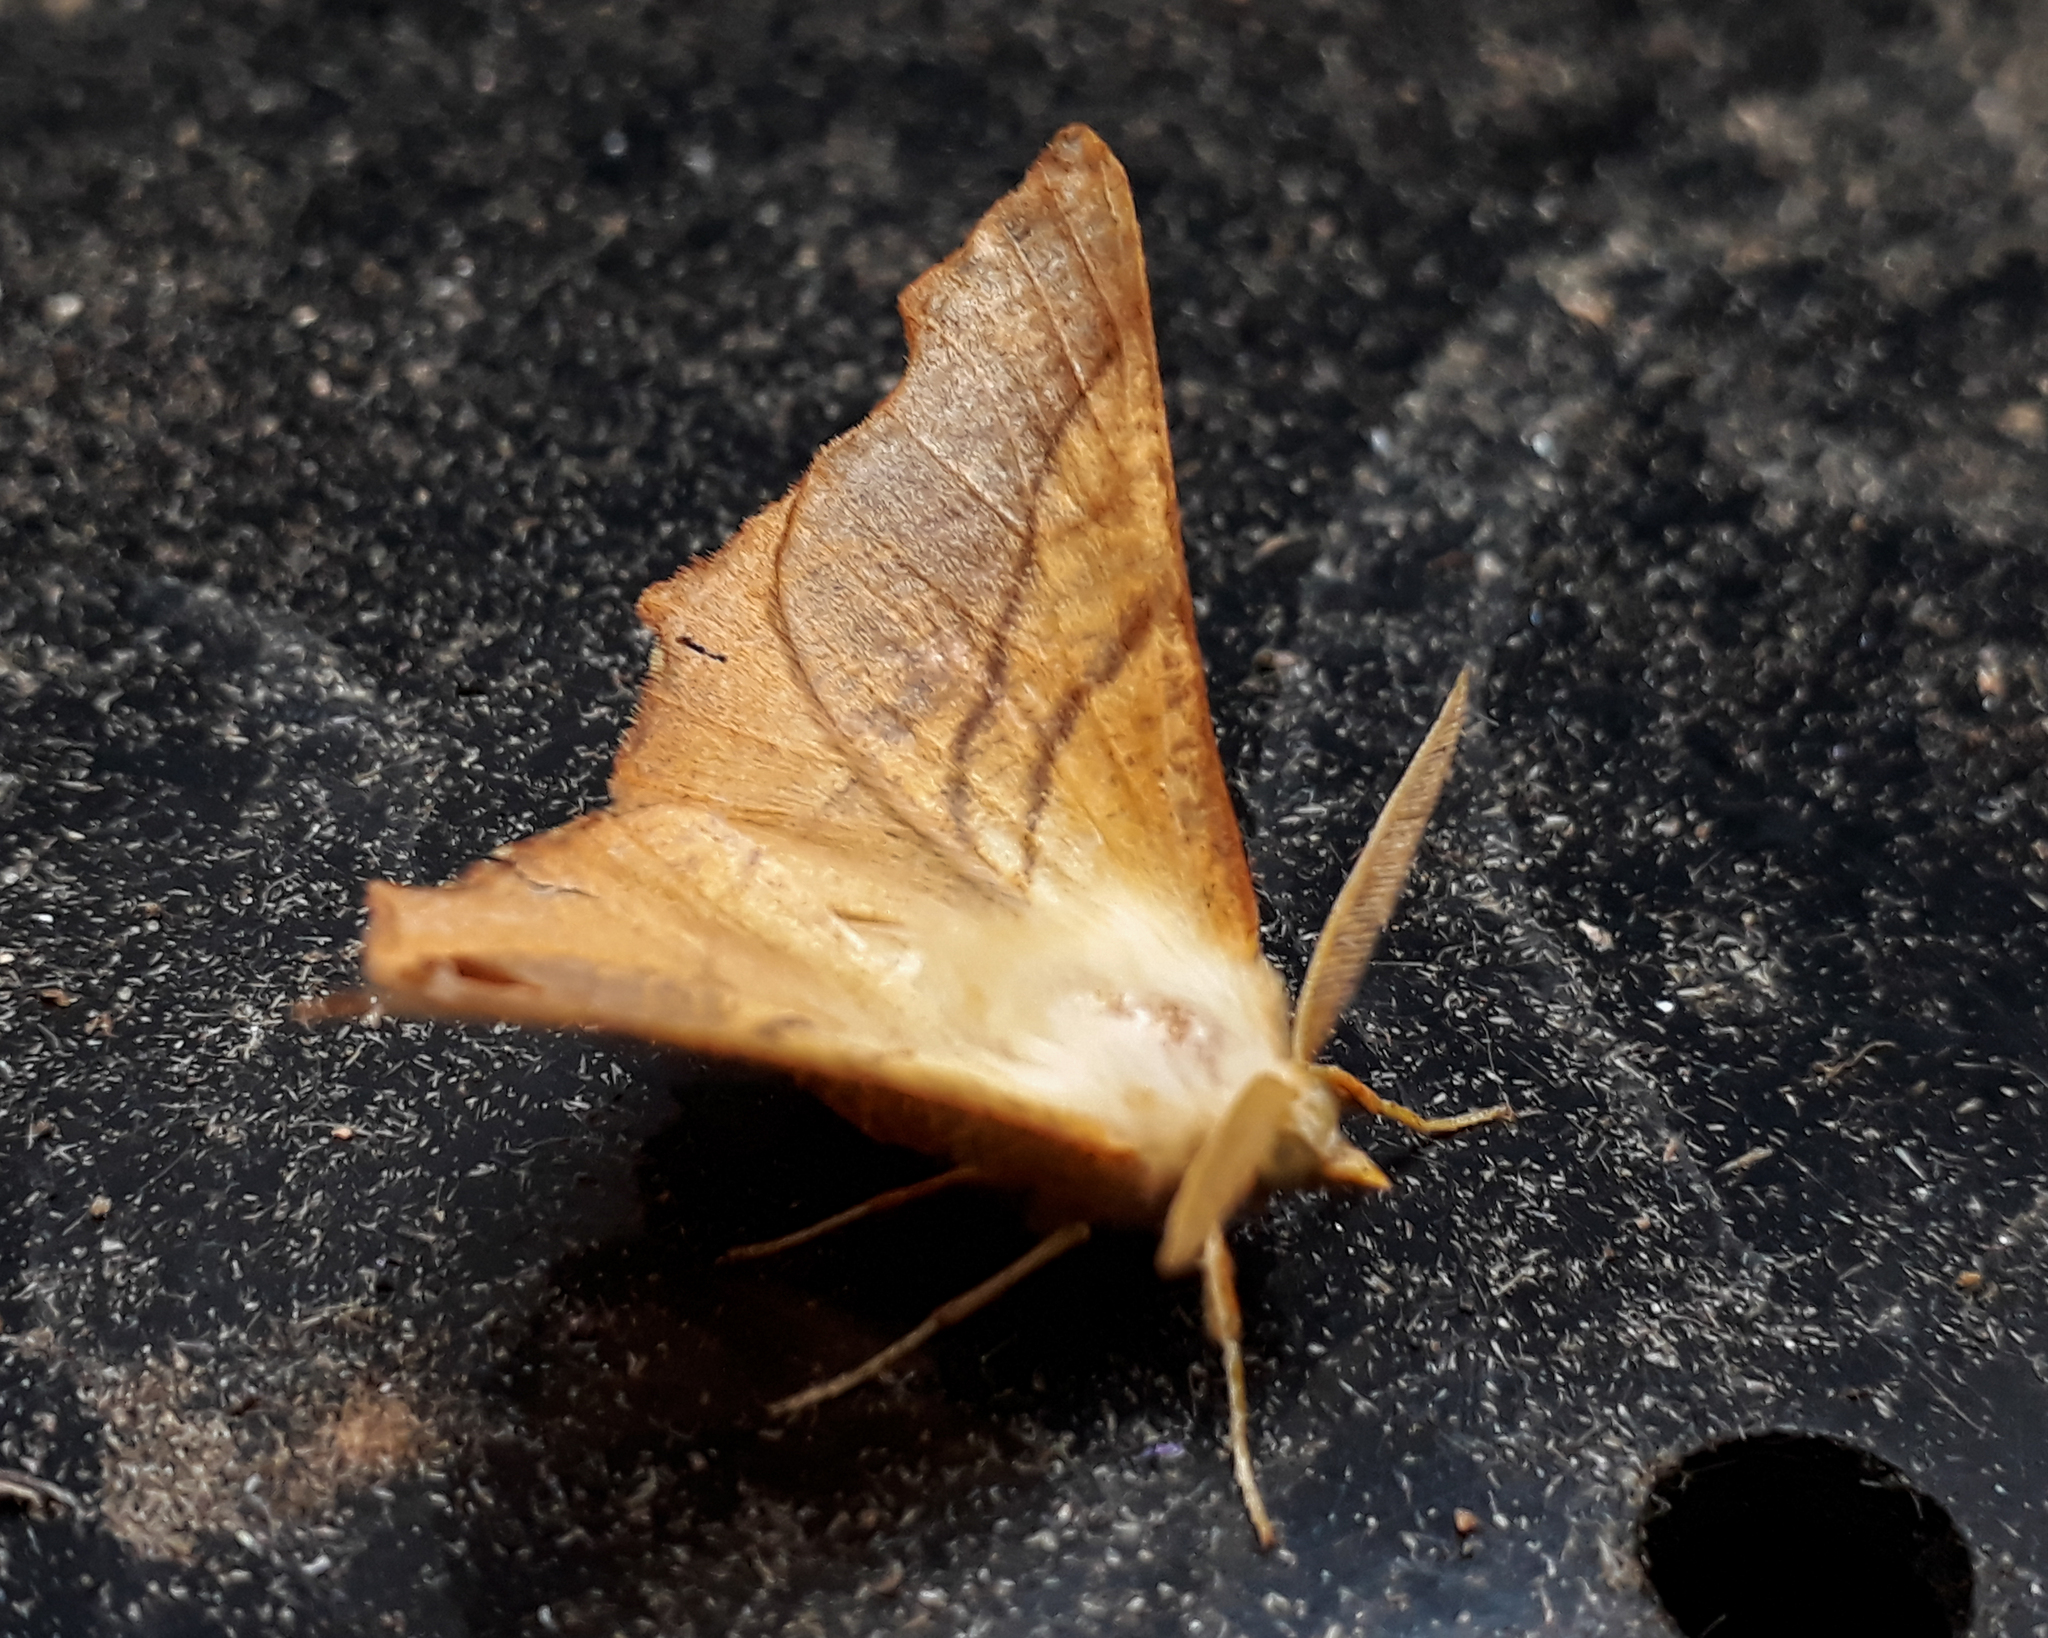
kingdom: Animalia
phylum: Arthropoda
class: Insecta
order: Lepidoptera
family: Geometridae
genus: Ennomos
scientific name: Ennomos fuscantaria
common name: Dusky thorn
